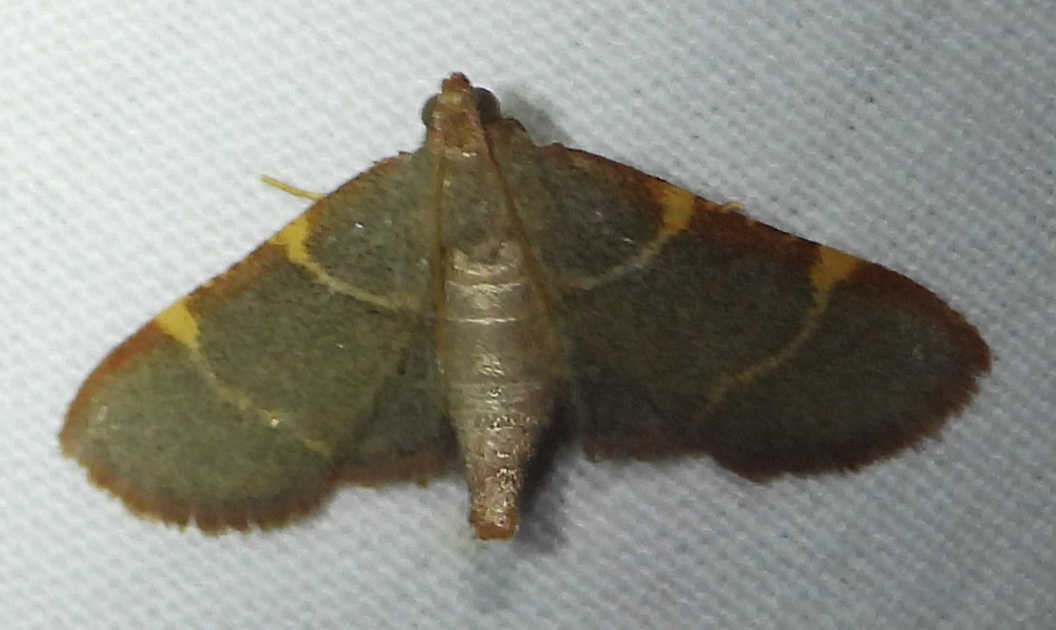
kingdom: Animalia
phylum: Arthropoda
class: Insecta
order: Lepidoptera
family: Pyralidae
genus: Hypsopygia
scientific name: Hypsopygia binodulalis
